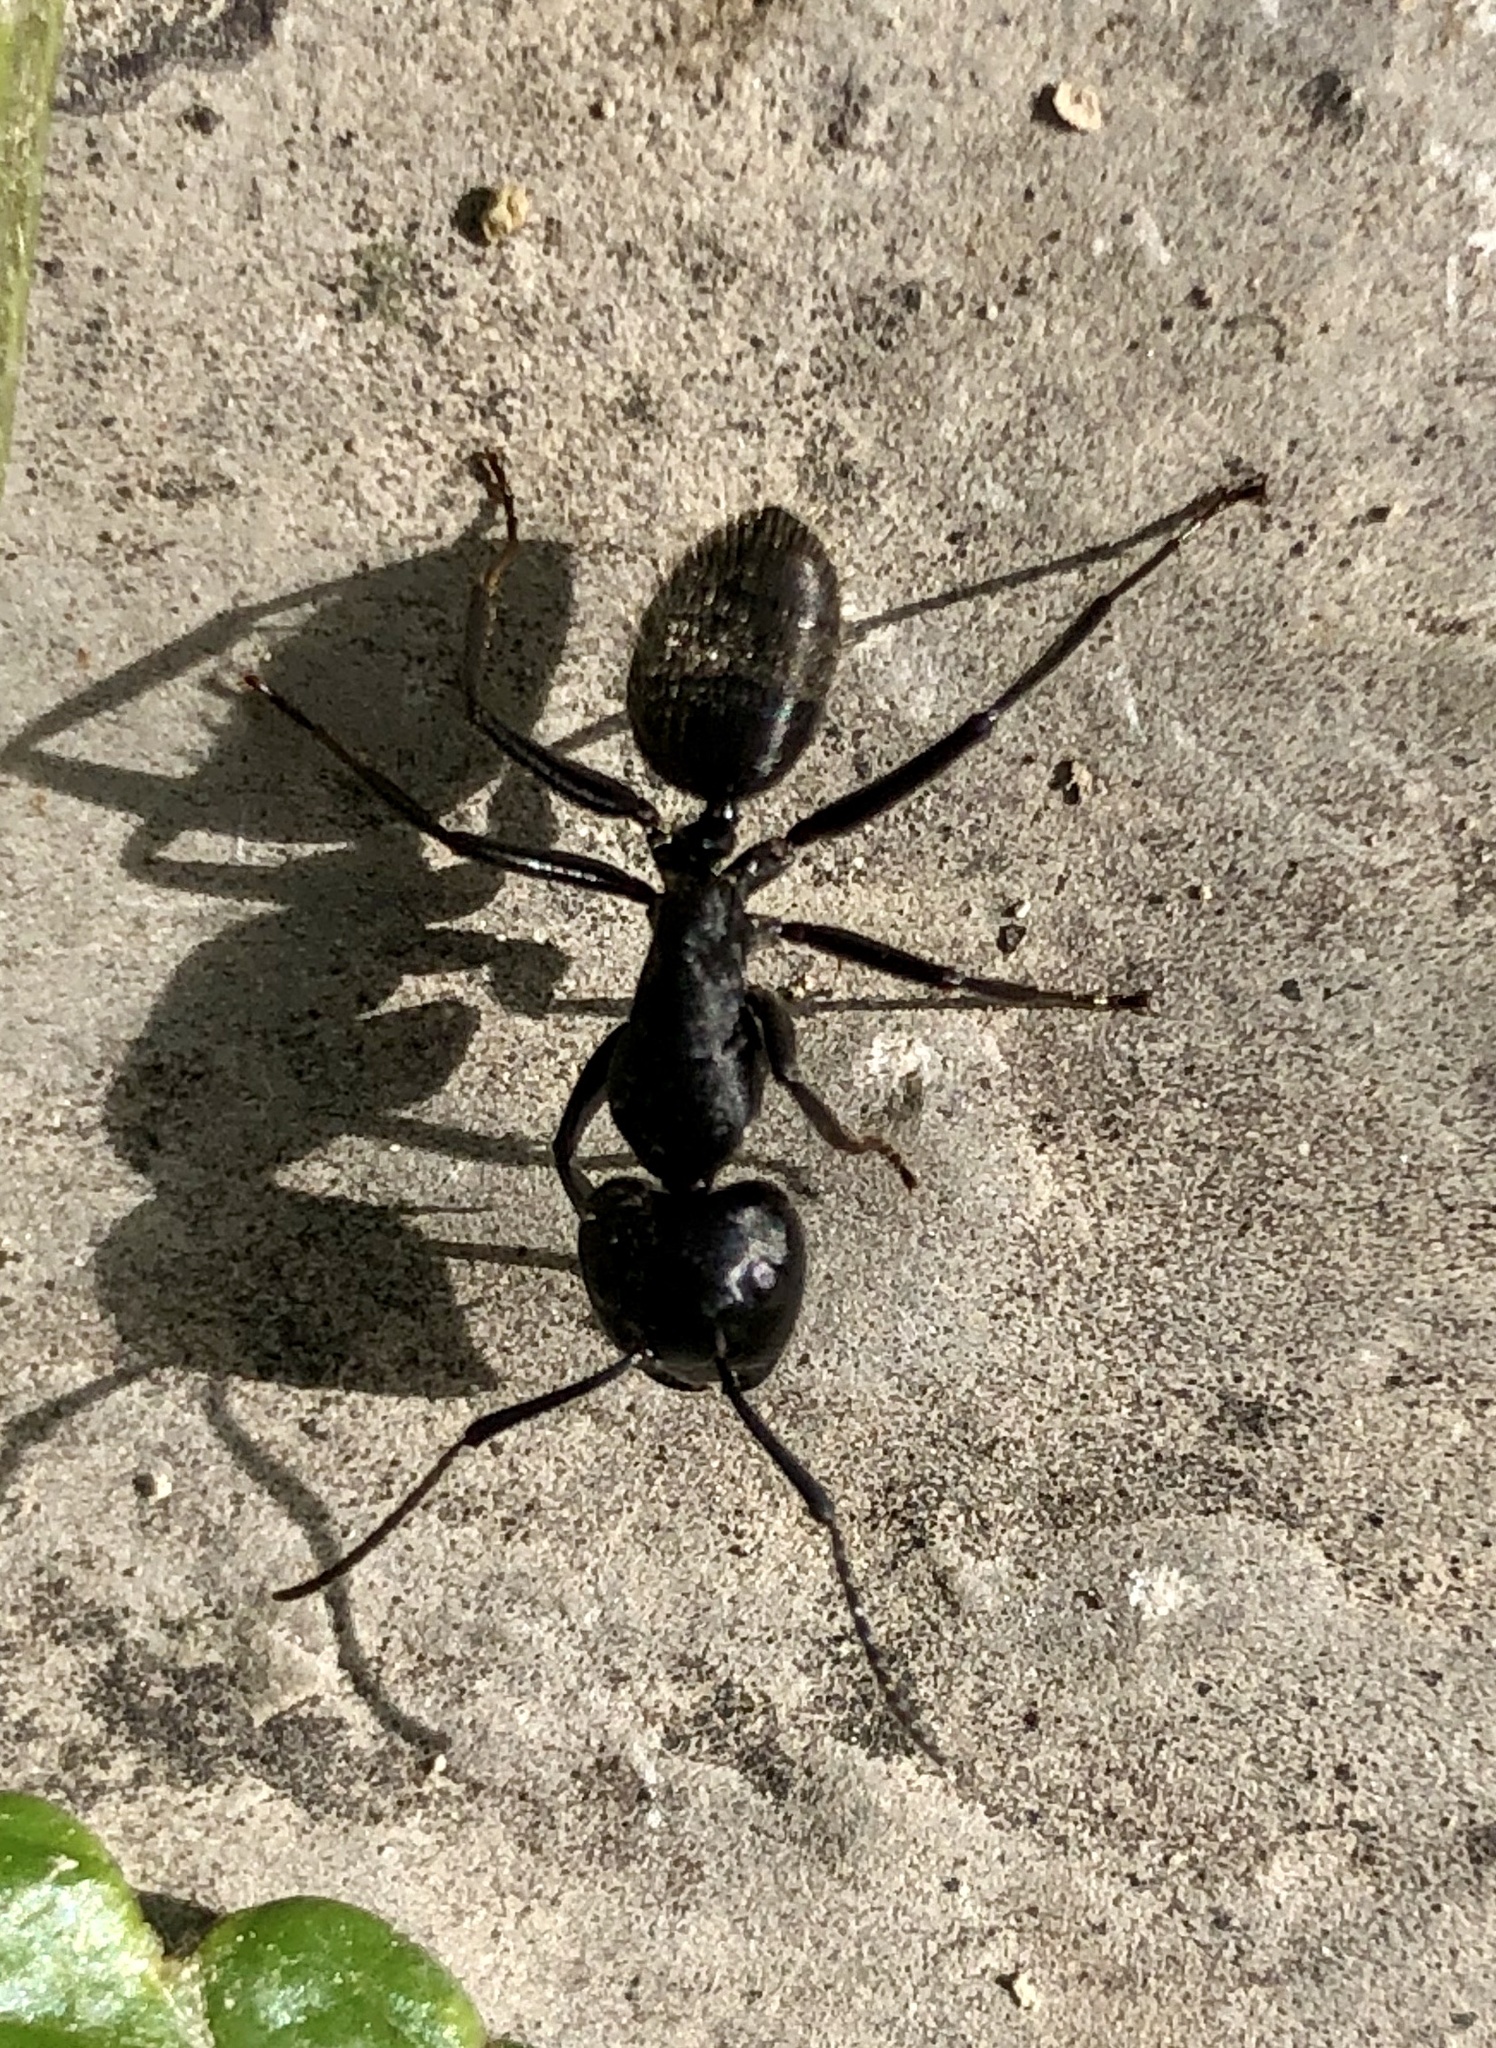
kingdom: Animalia
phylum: Arthropoda
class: Insecta
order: Hymenoptera
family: Formicidae
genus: Camponotus
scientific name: Camponotus vagus
